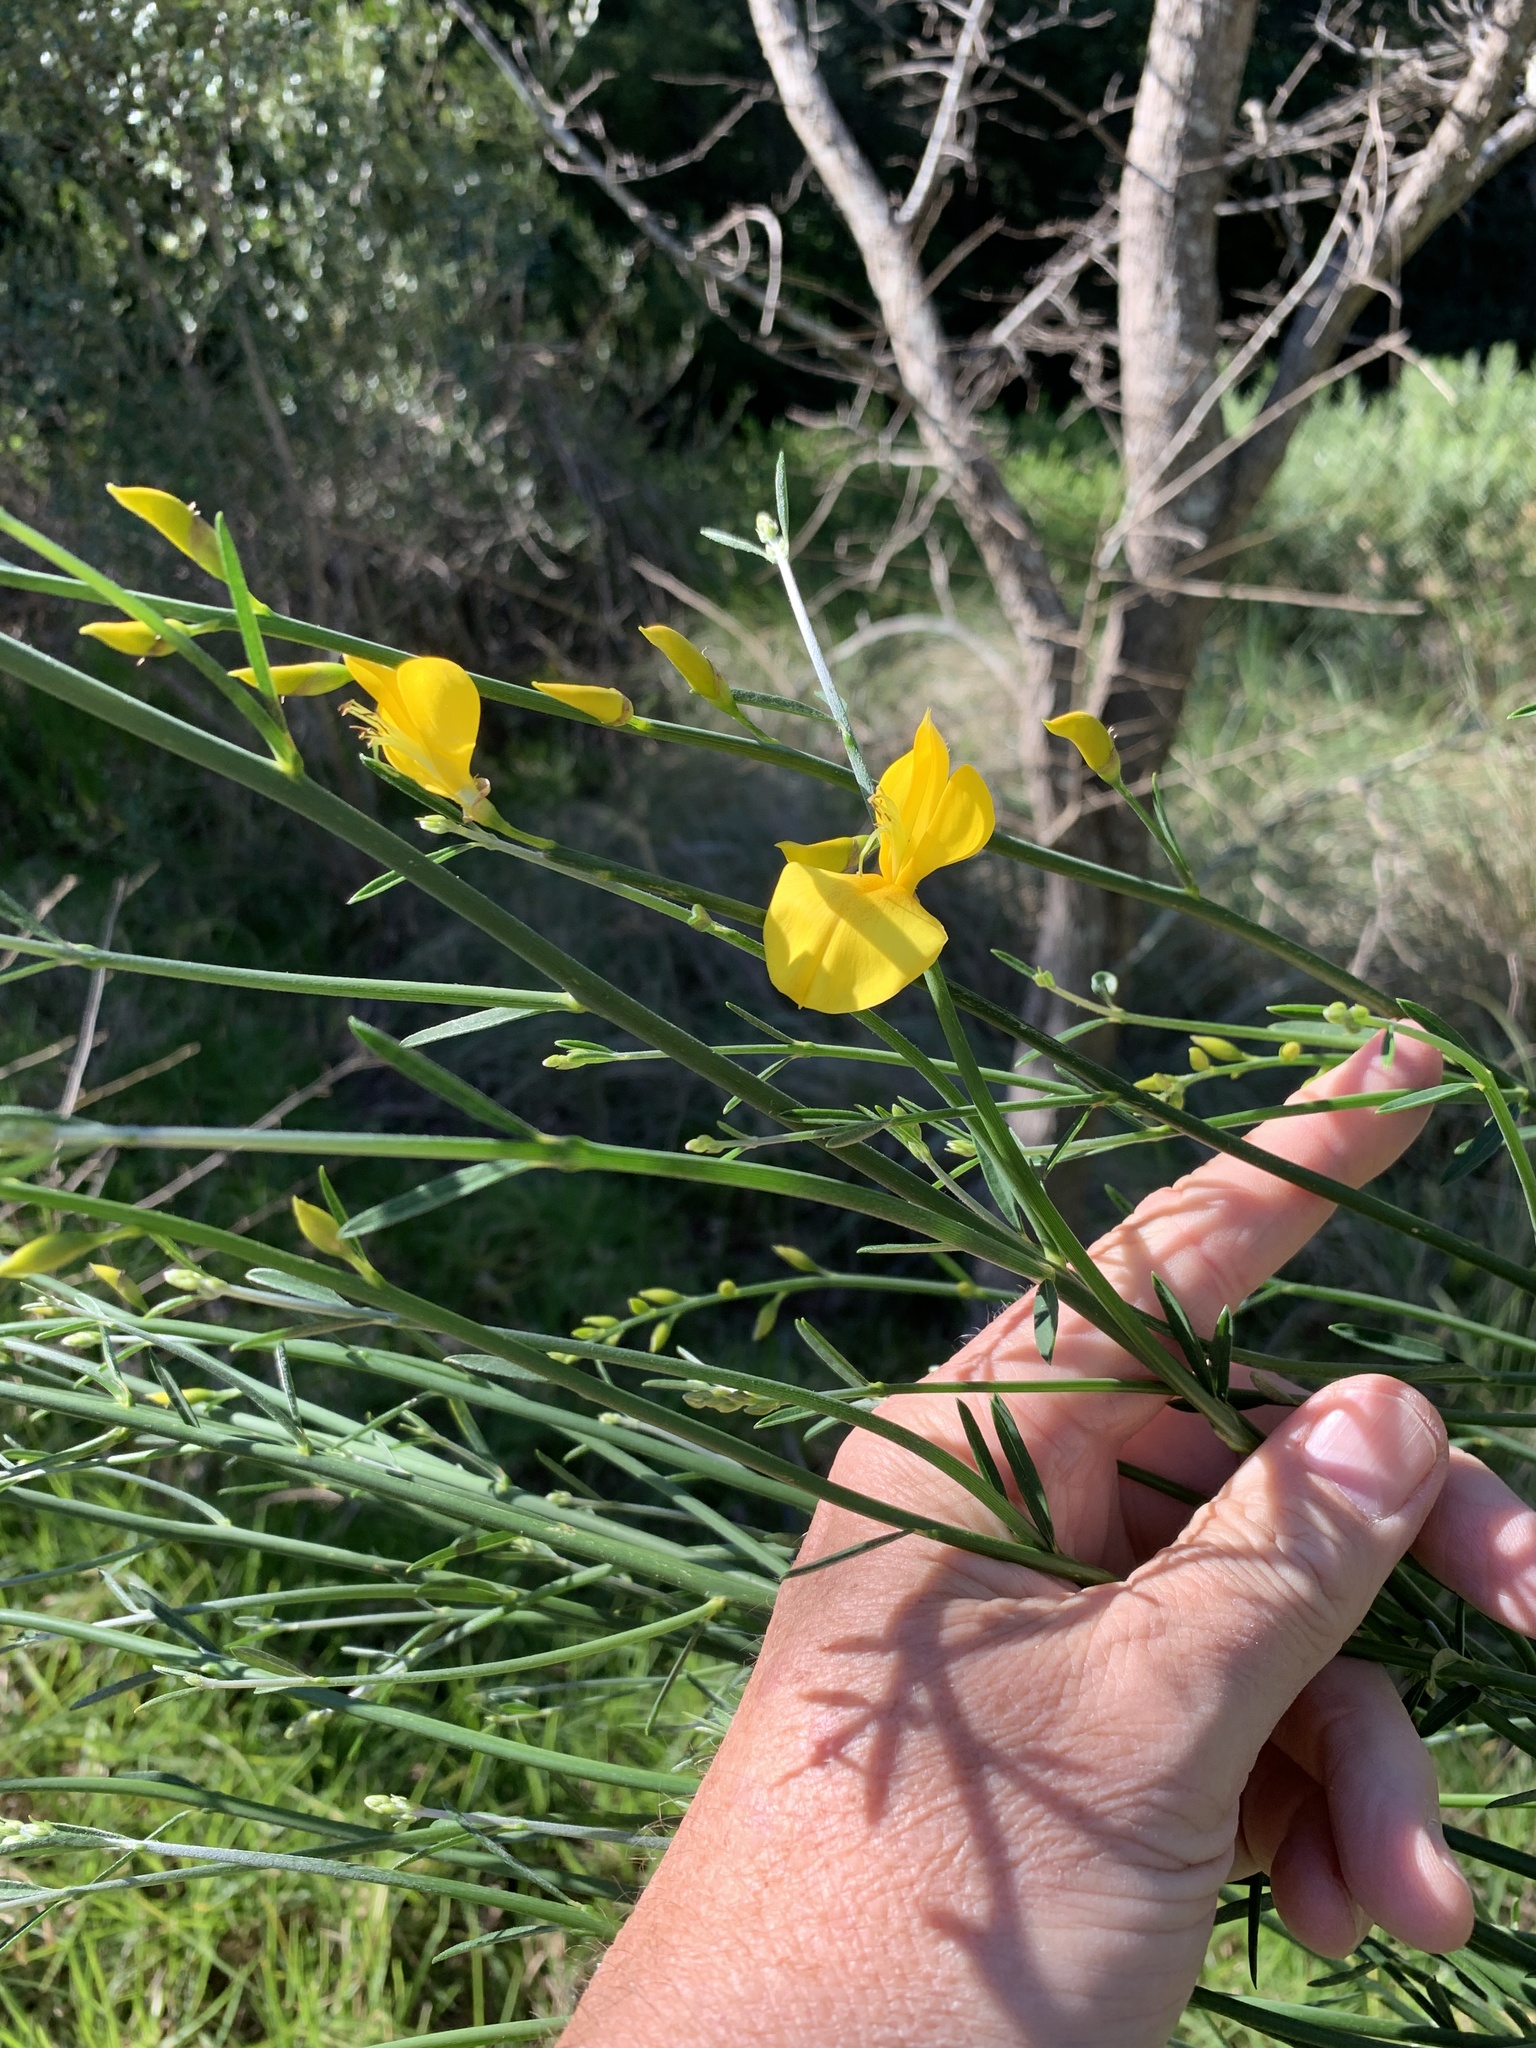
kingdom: Plantae
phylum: Tracheophyta
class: Magnoliopsida
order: Fabales
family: Fabaceae
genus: Spartium
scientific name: Spartium junceum
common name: Spanish broom
